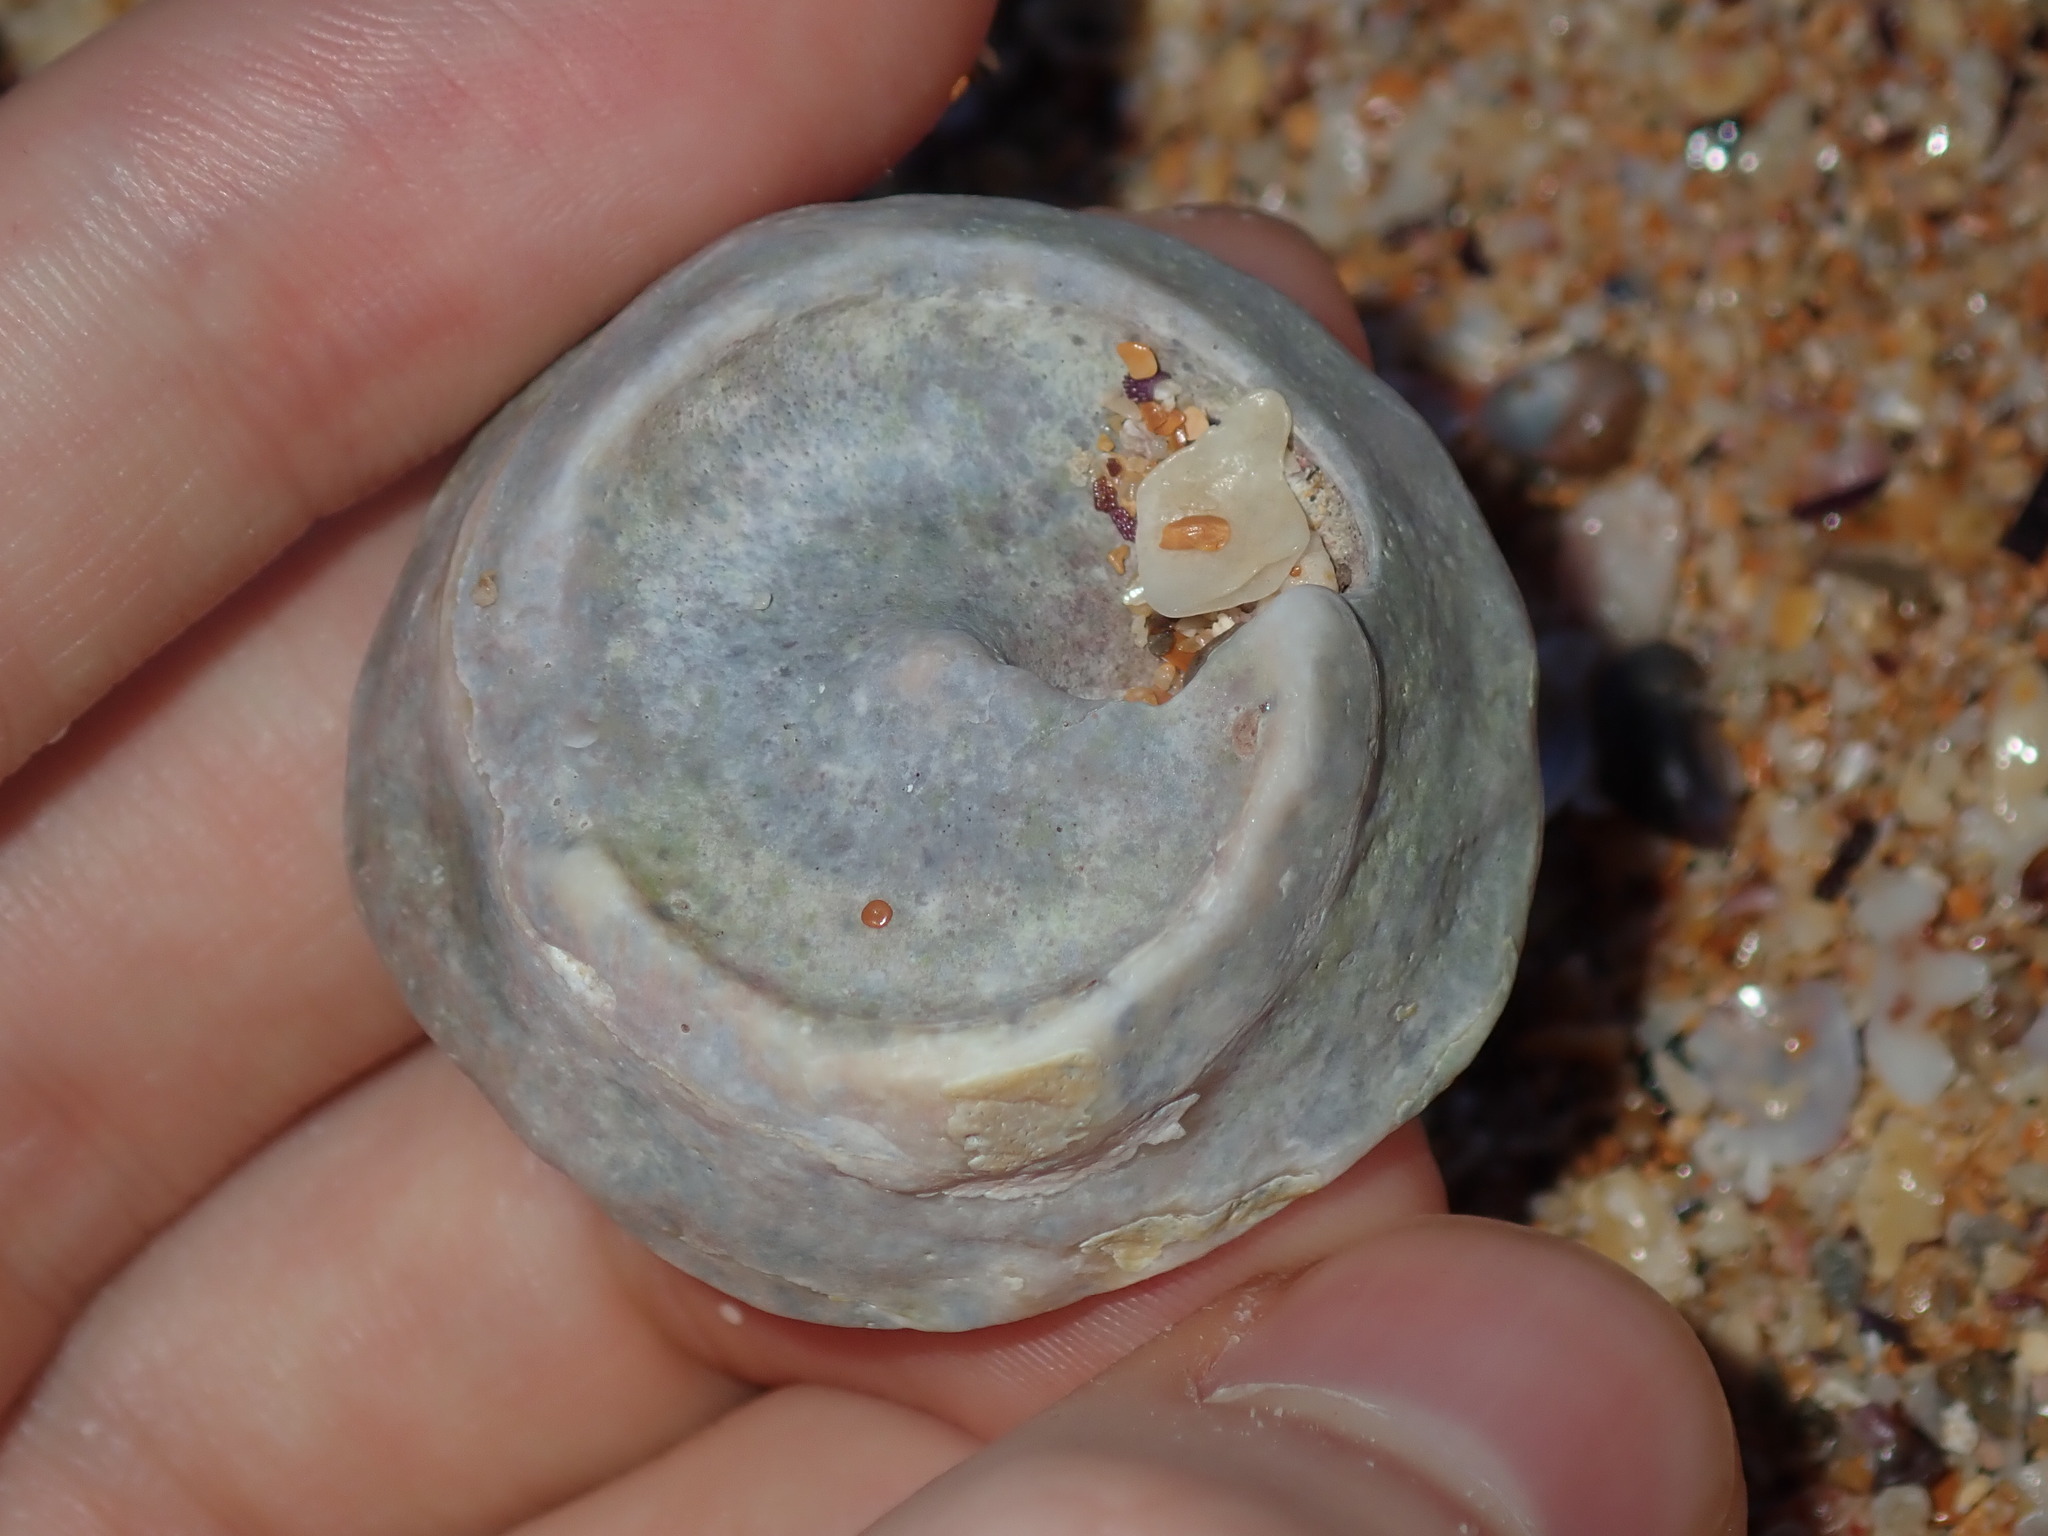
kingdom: Animalia
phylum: Mollusca
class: Gastropoda
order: Trochida
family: Turbinidae
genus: Astralium
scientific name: Astralium tentoriiforme
